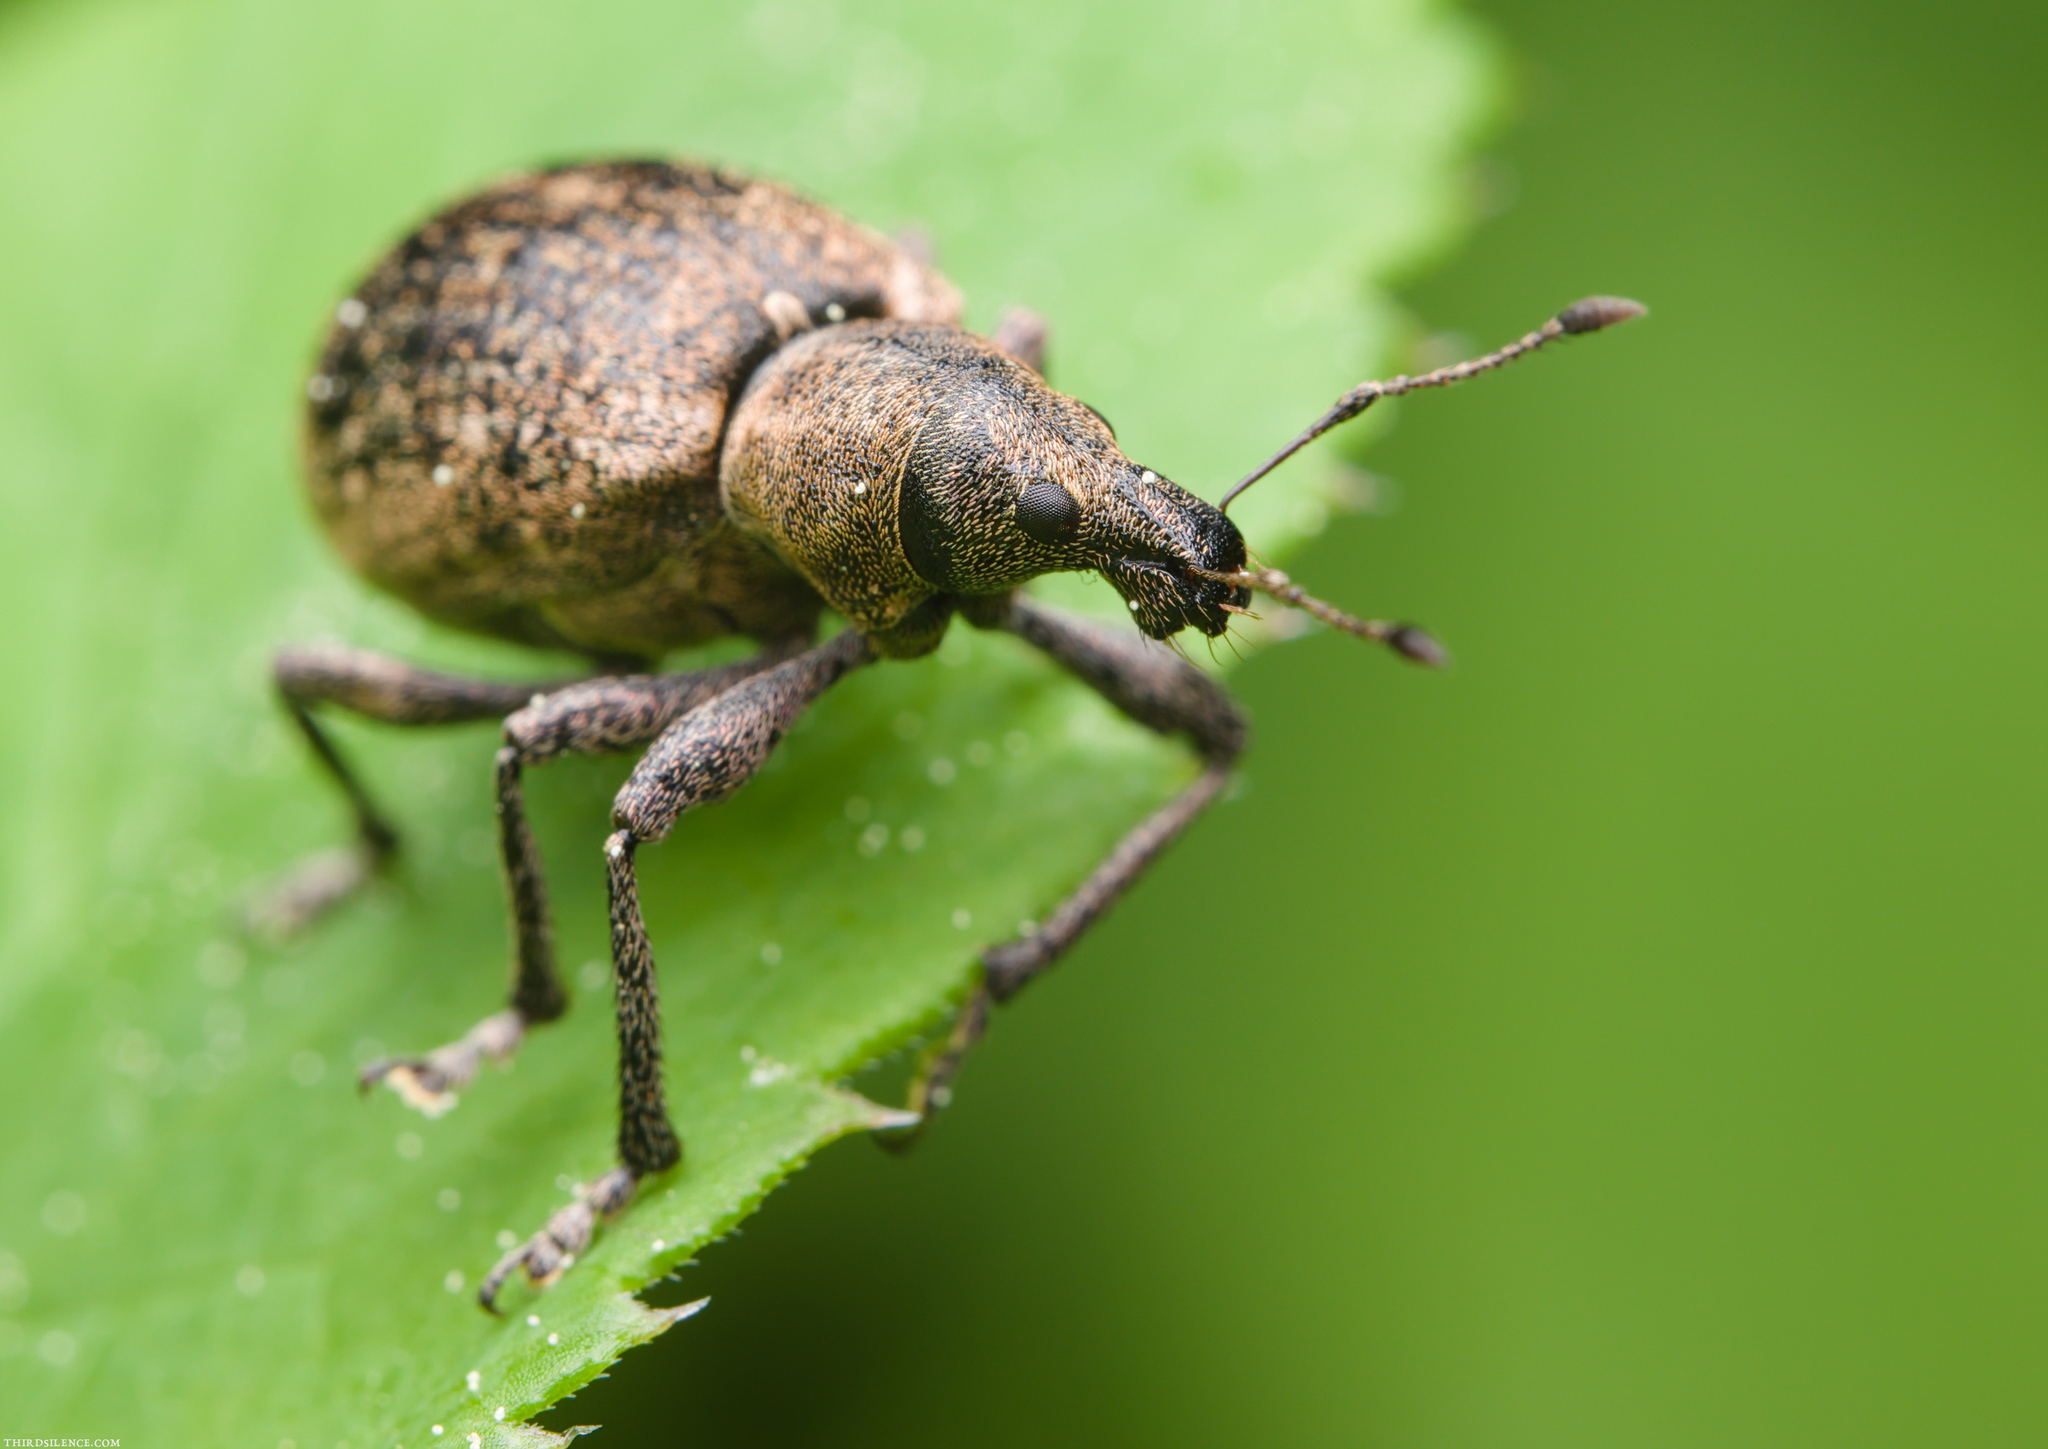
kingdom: Animalia
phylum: Arthropoda
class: Insecta
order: Coleoptera
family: Curculionidae
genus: Liophloeus
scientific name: Liophloeus tessulatus
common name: Weevil
